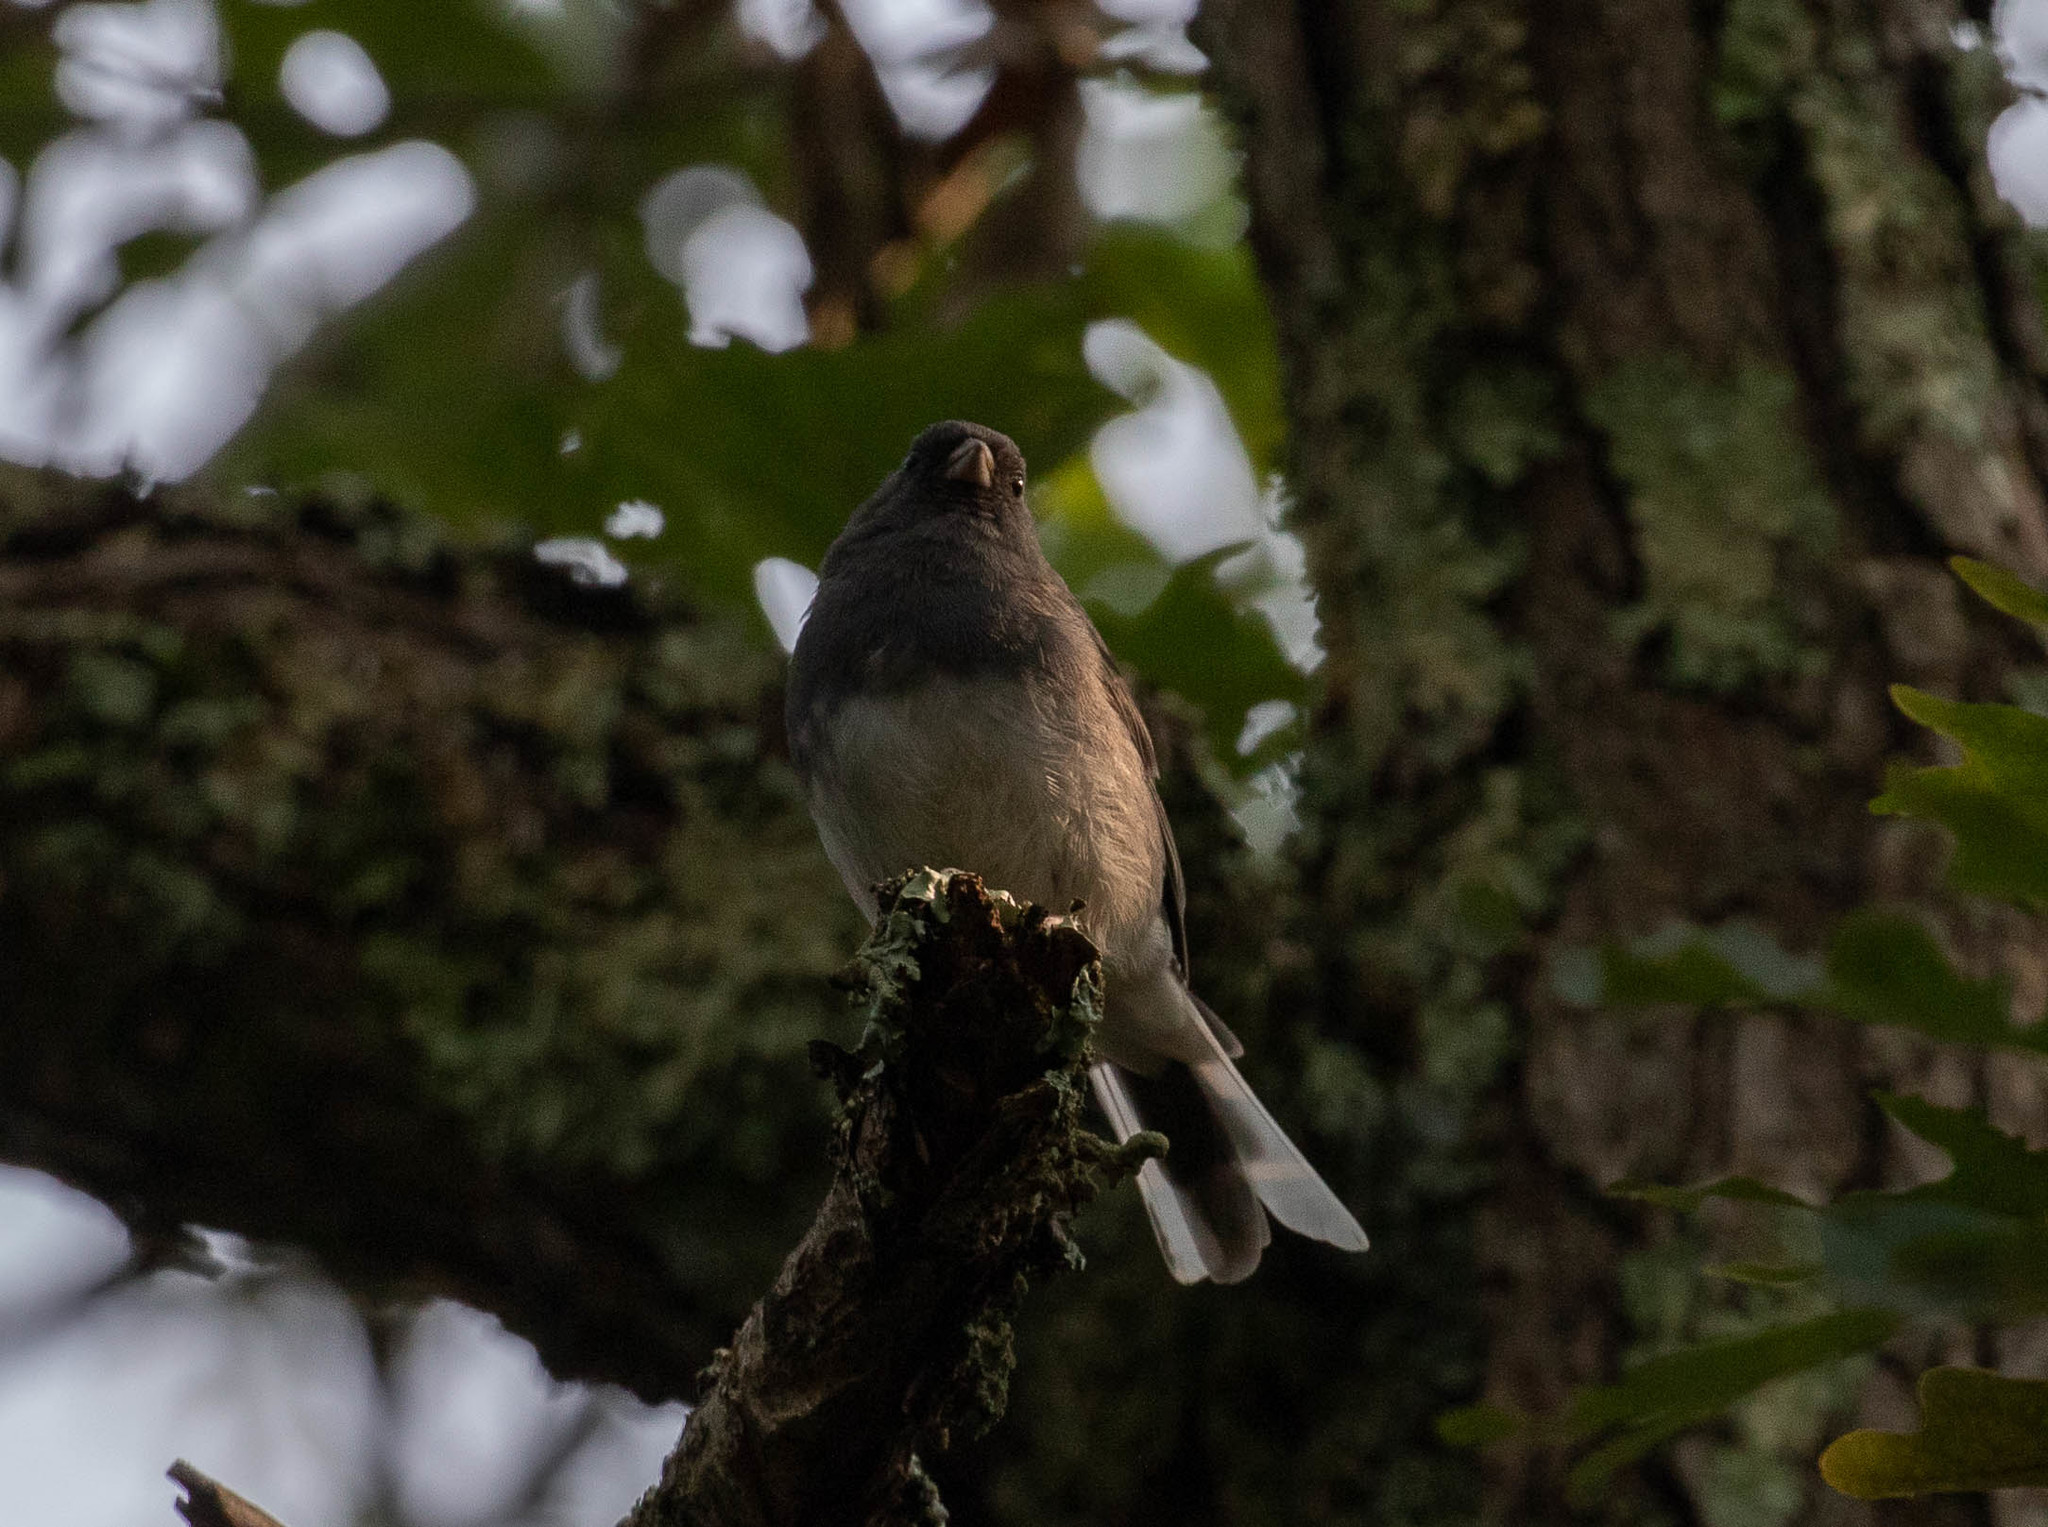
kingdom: Animalia
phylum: Chordata
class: Aves
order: Passeriformes
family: Passerellidae
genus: Junco
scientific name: Junco hyemalis
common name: Dark-eyed junco
